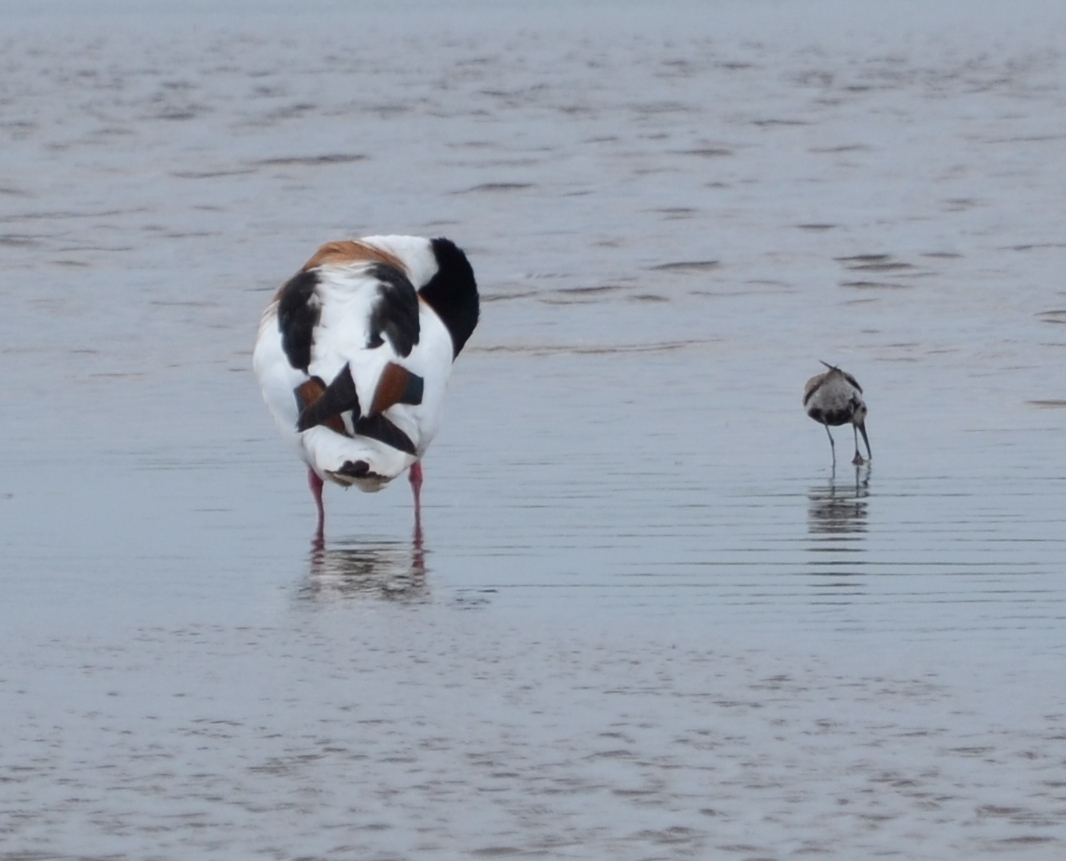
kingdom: Animalia
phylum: Chordata
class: Aves
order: Anseriformes
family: Anatidae
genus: Tadorna
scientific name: Tadorna tadorna
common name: Common shelduck
